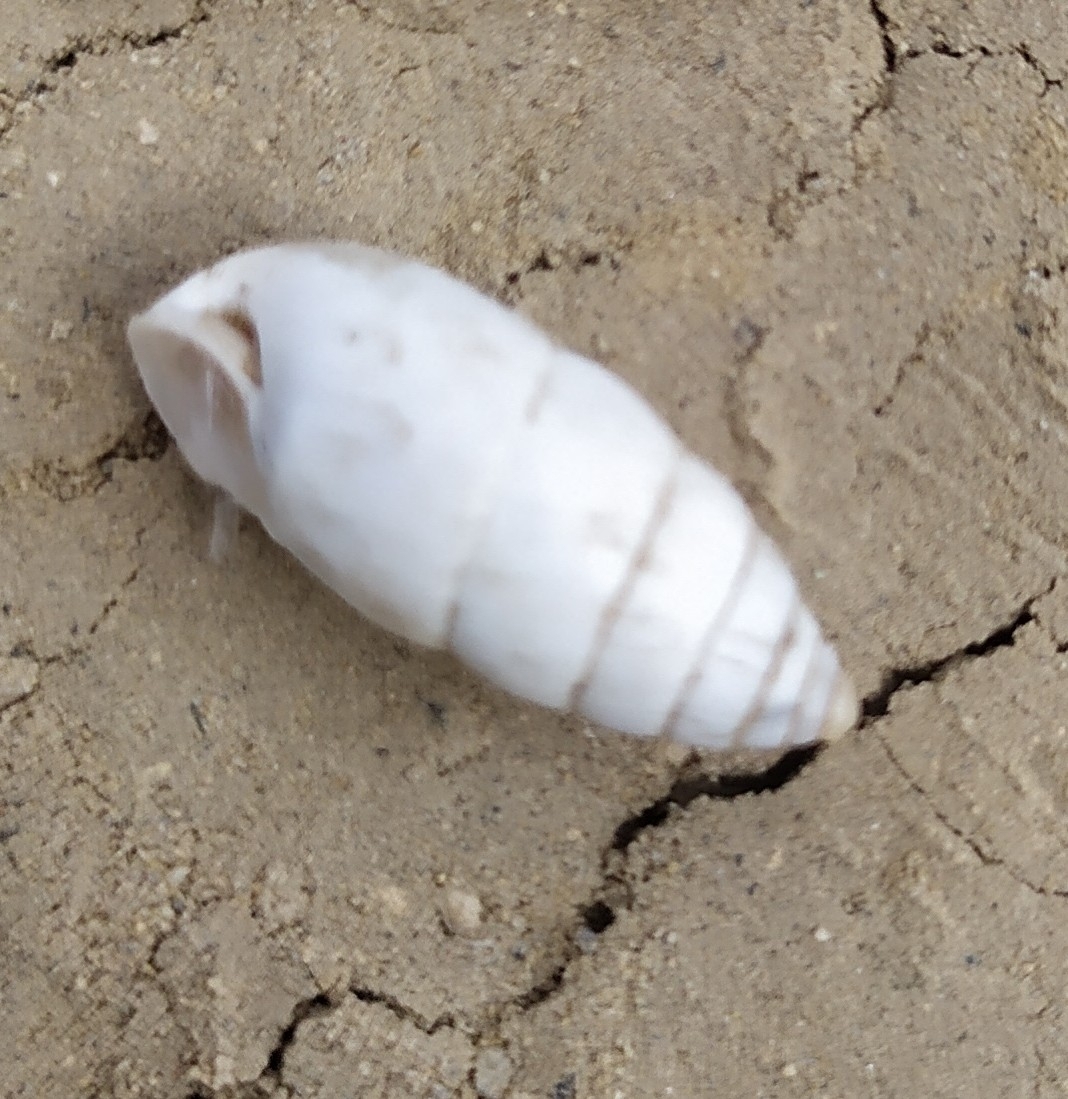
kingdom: Animalia
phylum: Mollusca
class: Gastropoda
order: Stylommatophora
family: Enidae
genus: Brephulopsis
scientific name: Brephulopsis cylindrica
